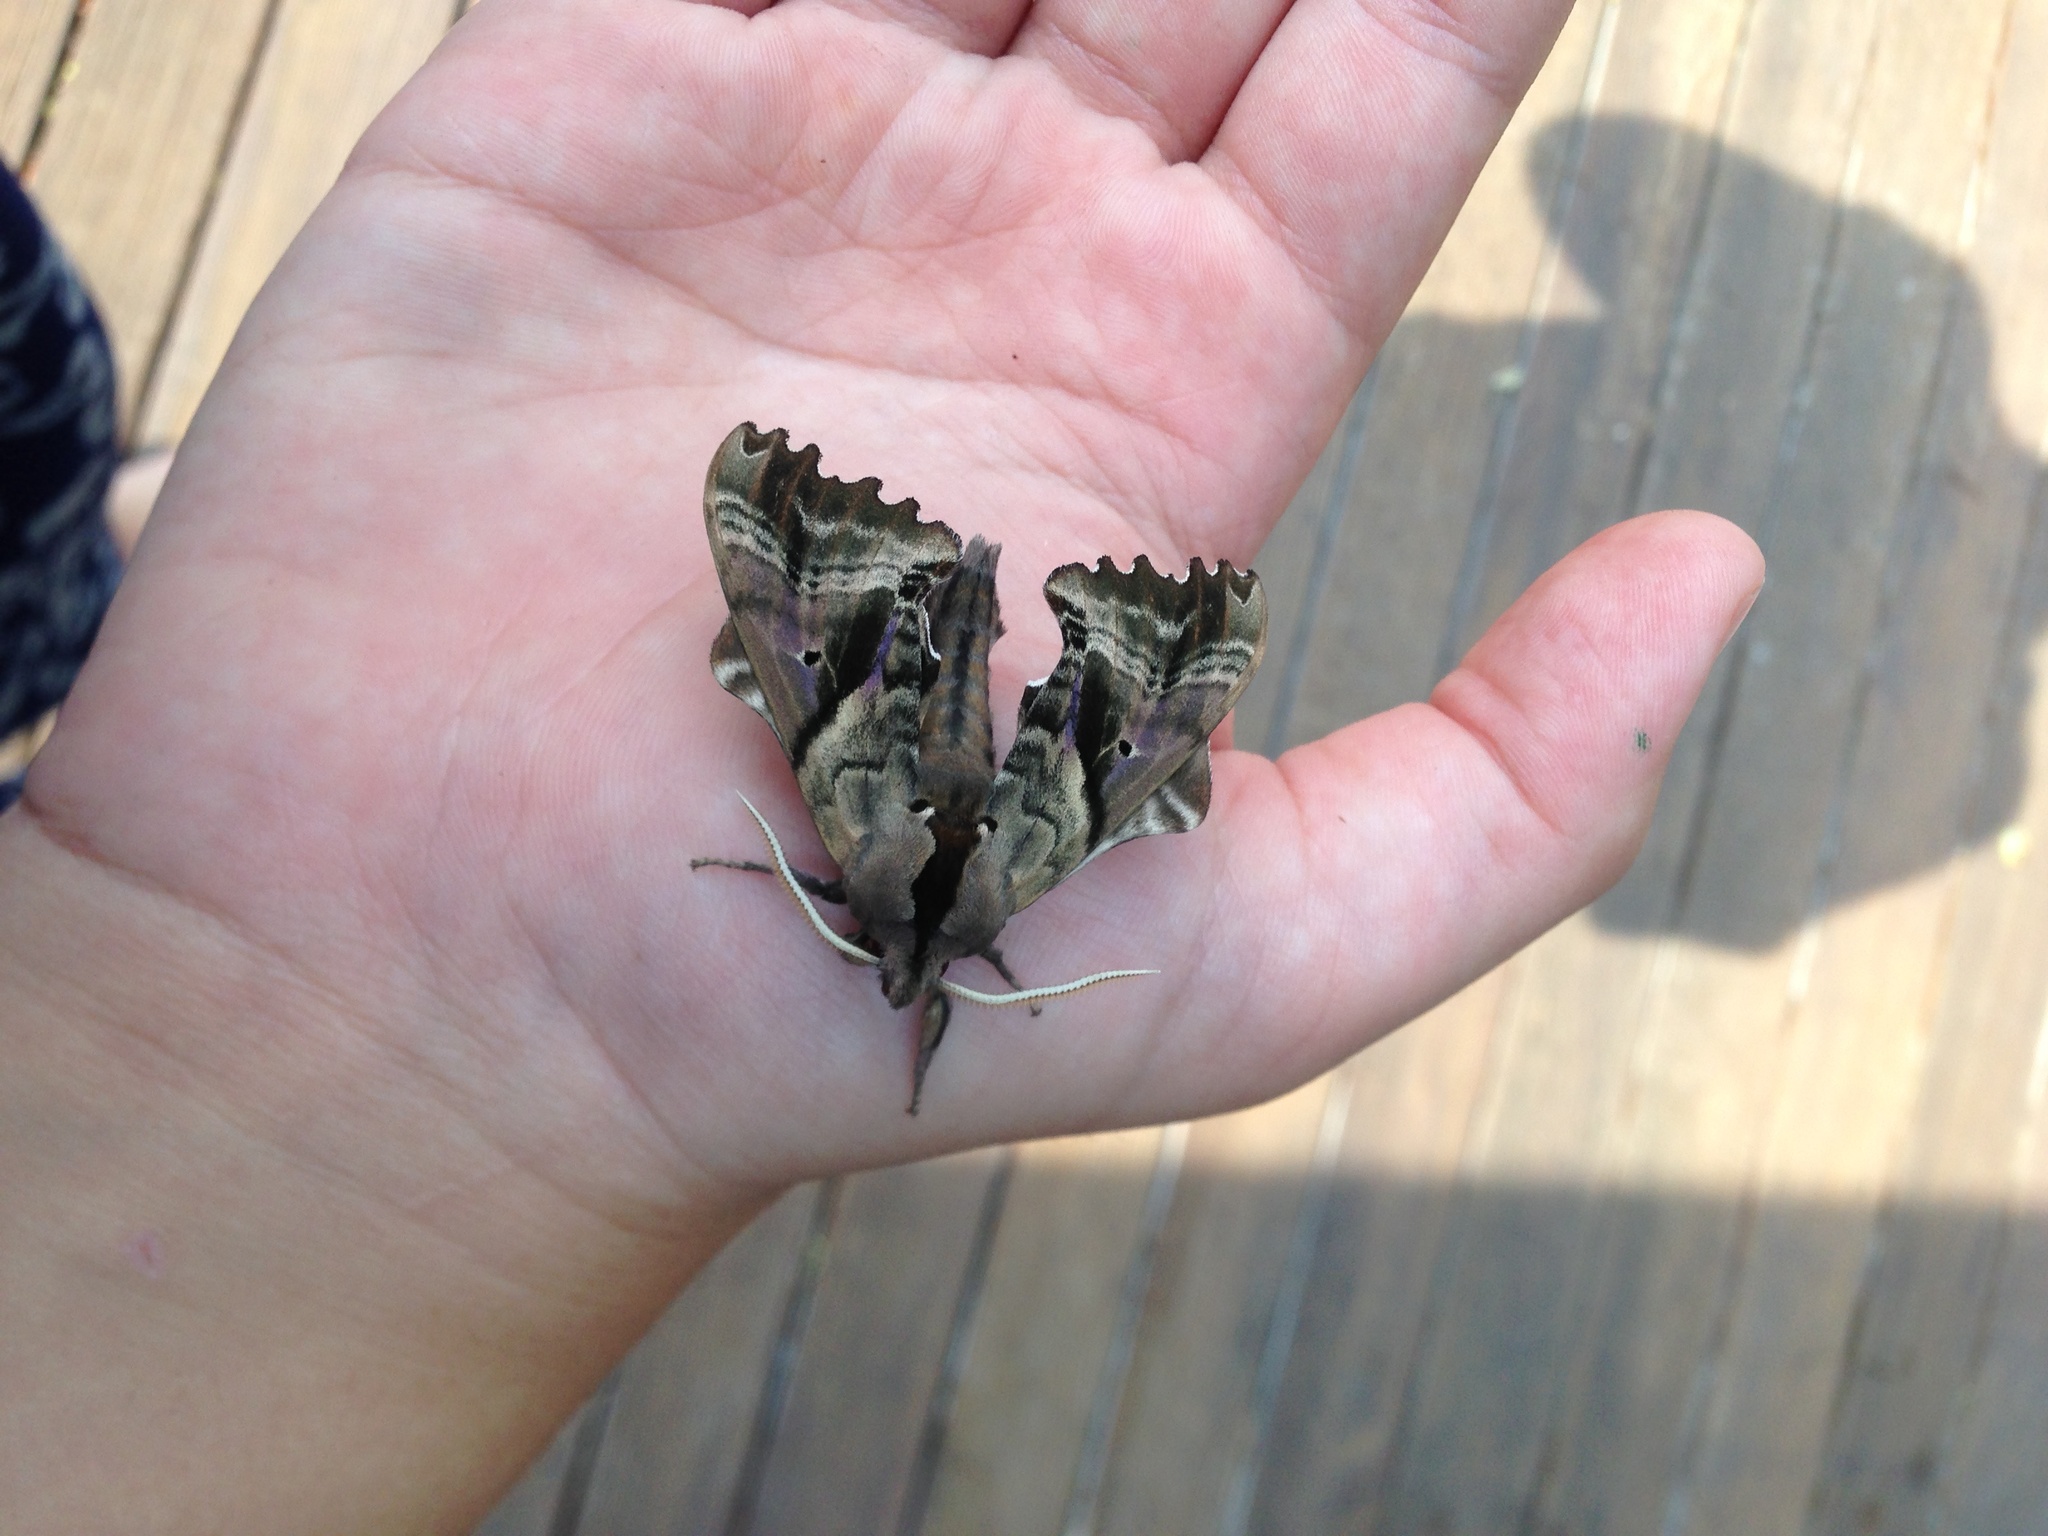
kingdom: Animalia
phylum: Arthropoda
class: Insecta
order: Lepidoptera
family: Sphingidae
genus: Paonias
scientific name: Paonias excaecata
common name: Blind-eyed sphinx
